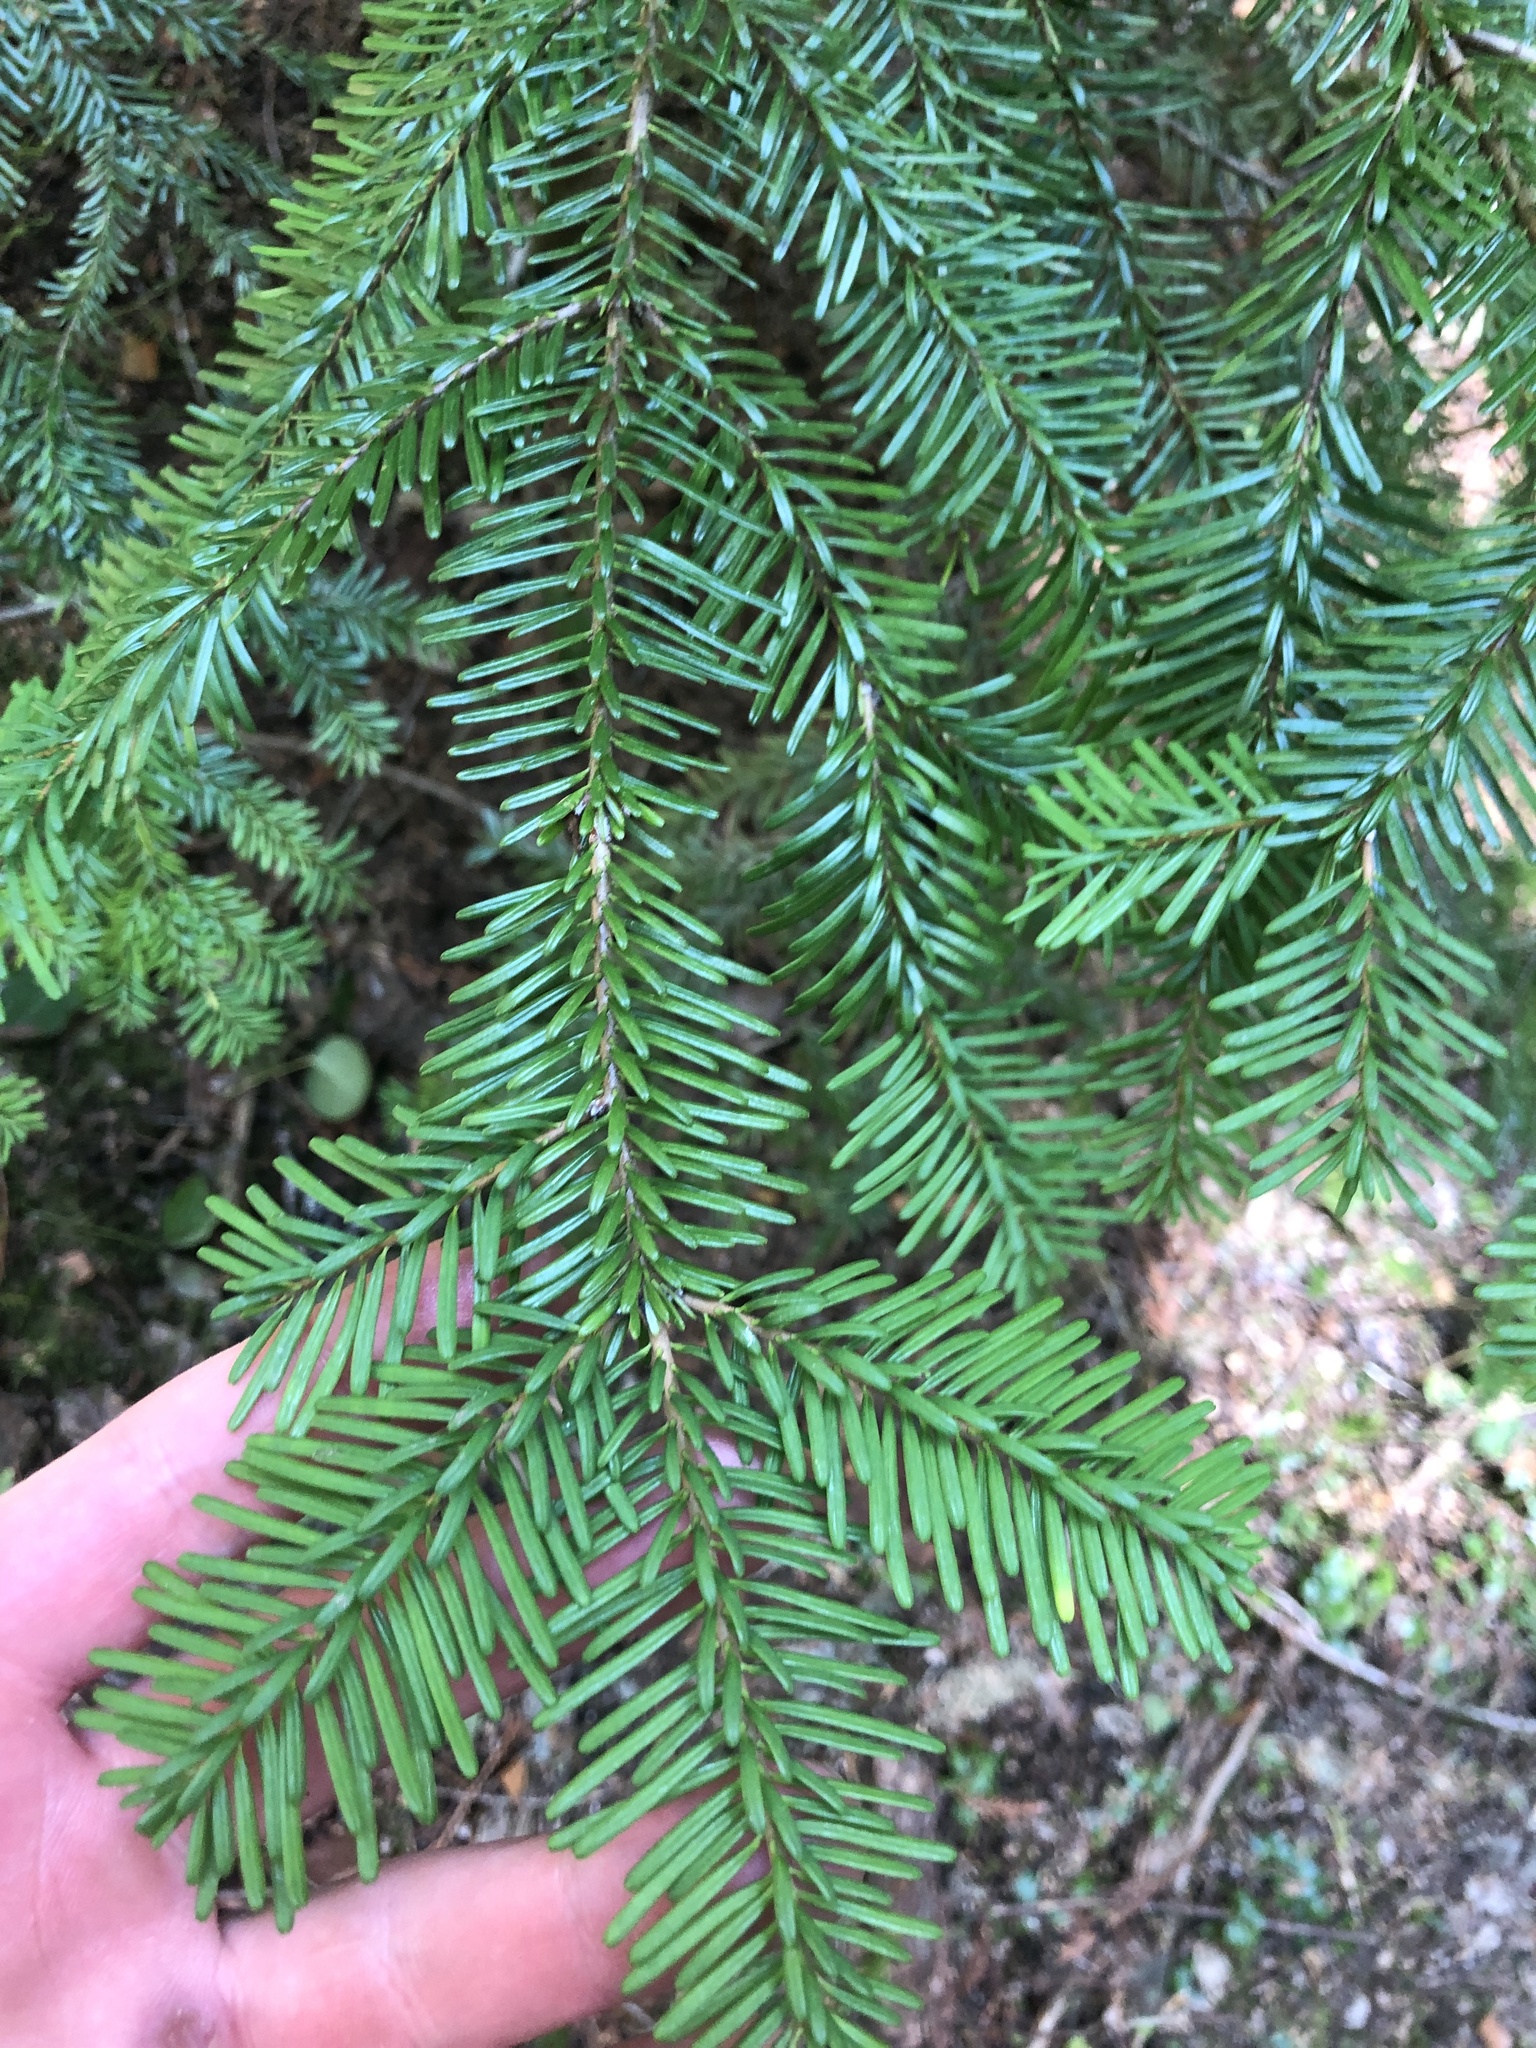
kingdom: Plantae
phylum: Tracheophyta
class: Pinopsida
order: Pinales
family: Pinaceae
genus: Abies
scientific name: Abies amabilis
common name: Pacific silver fir
